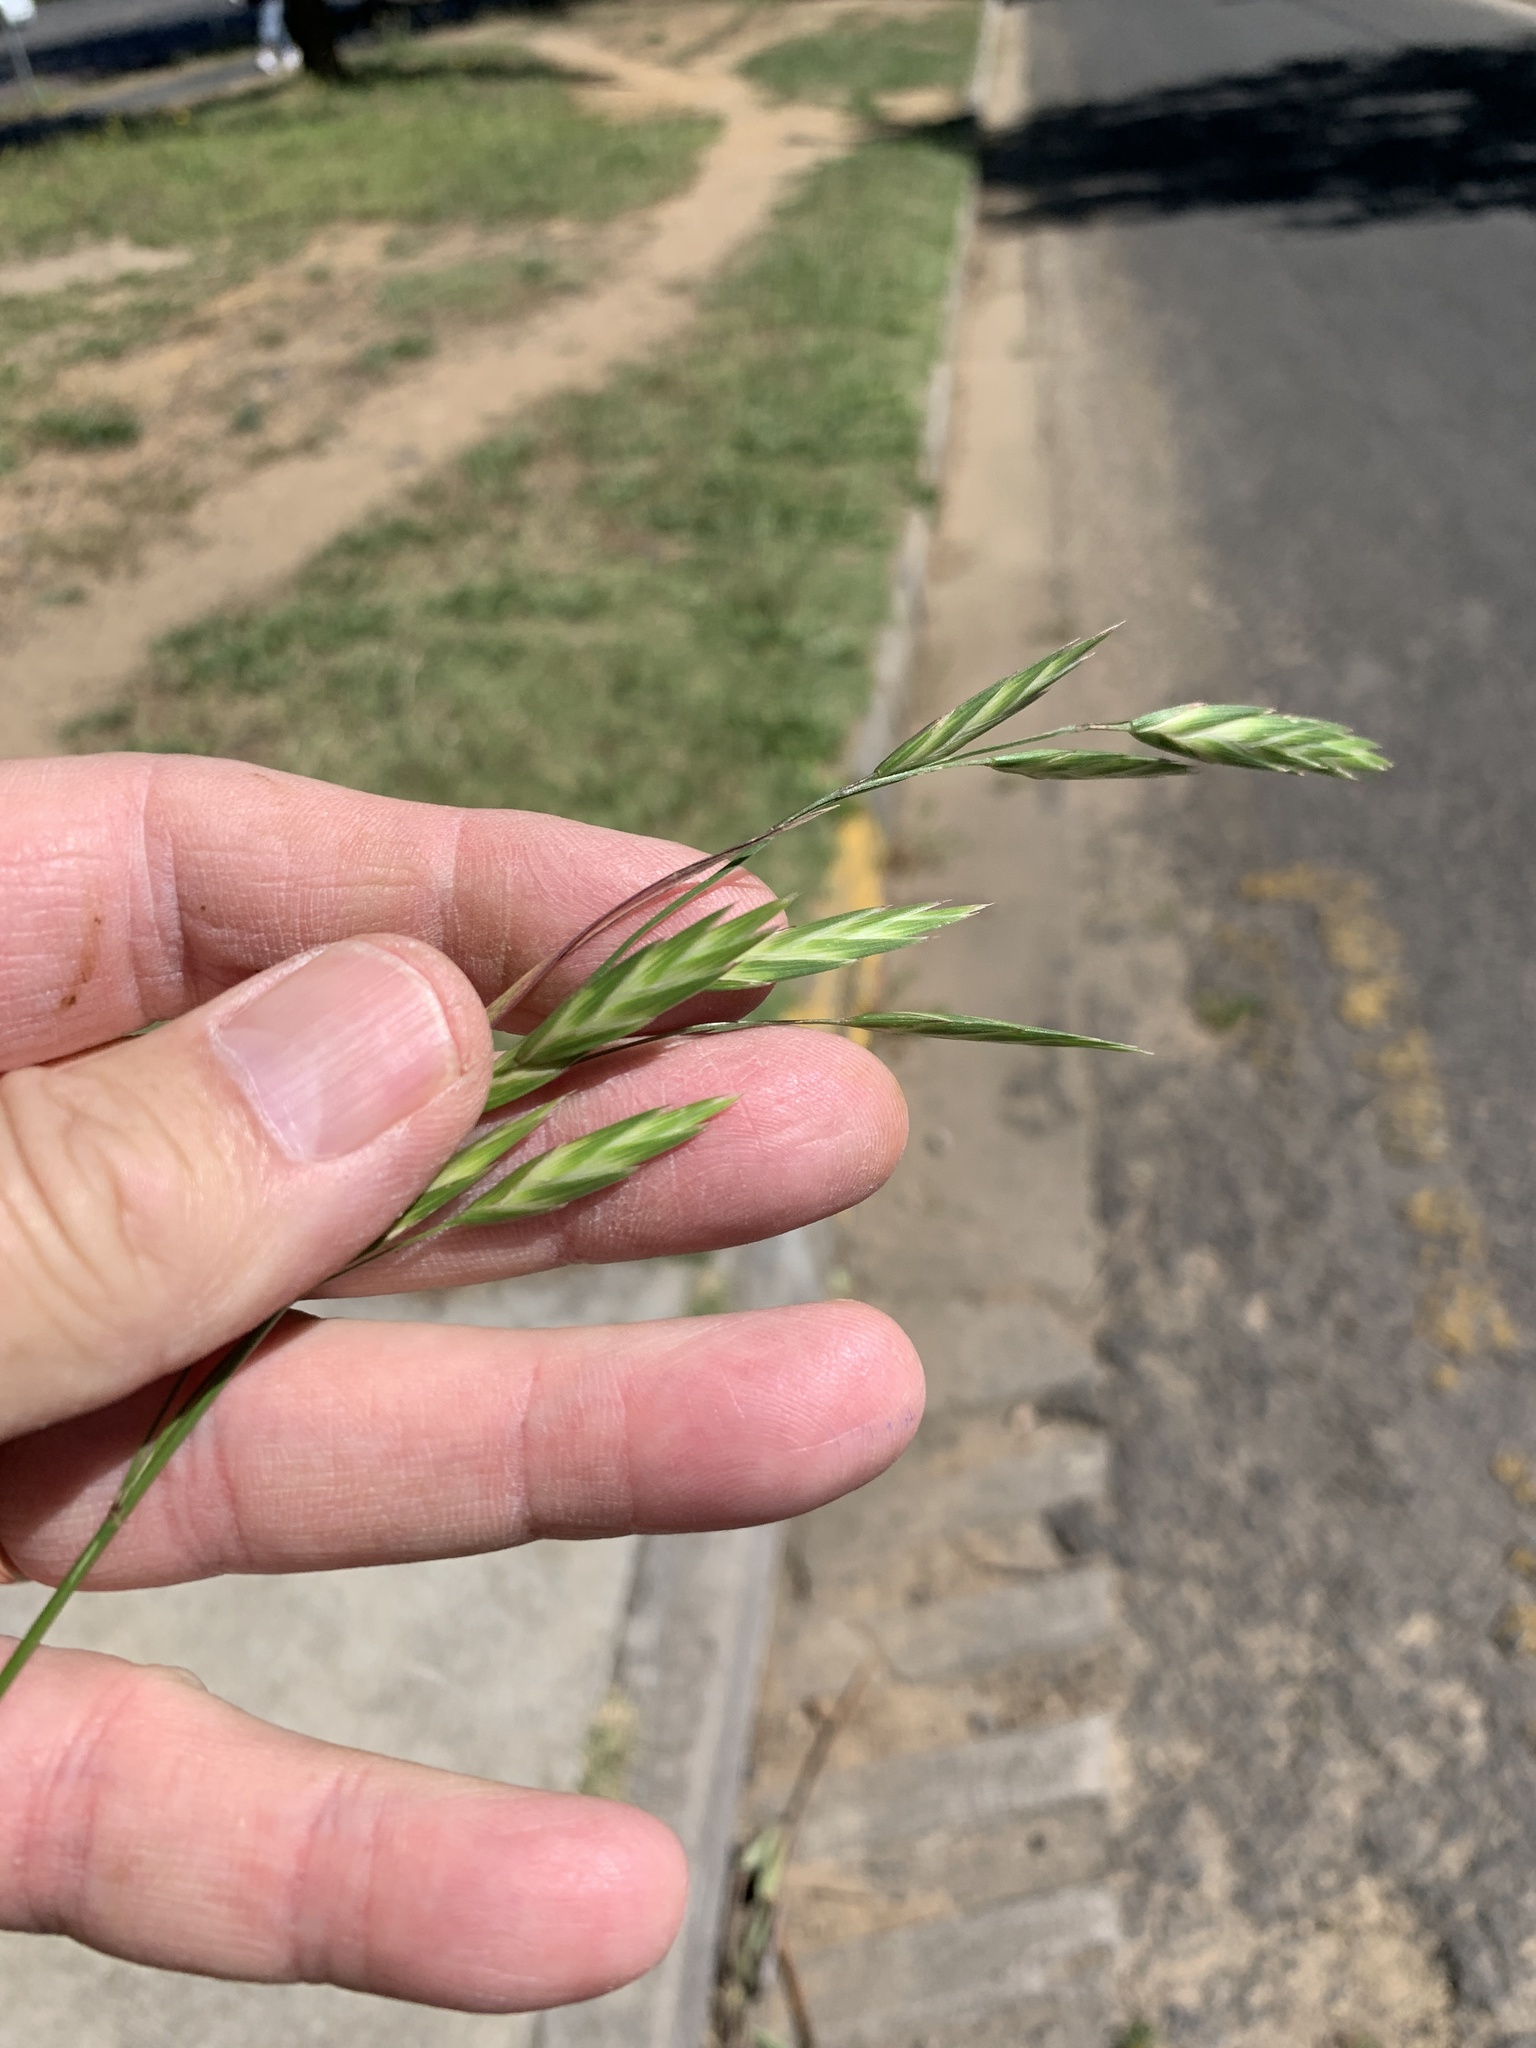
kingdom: Plantae
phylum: Tracheophyta
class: Liliopsida
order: Poales
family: Poaceae
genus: Bromus
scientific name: Bromus catharticus
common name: Rescuegrass
